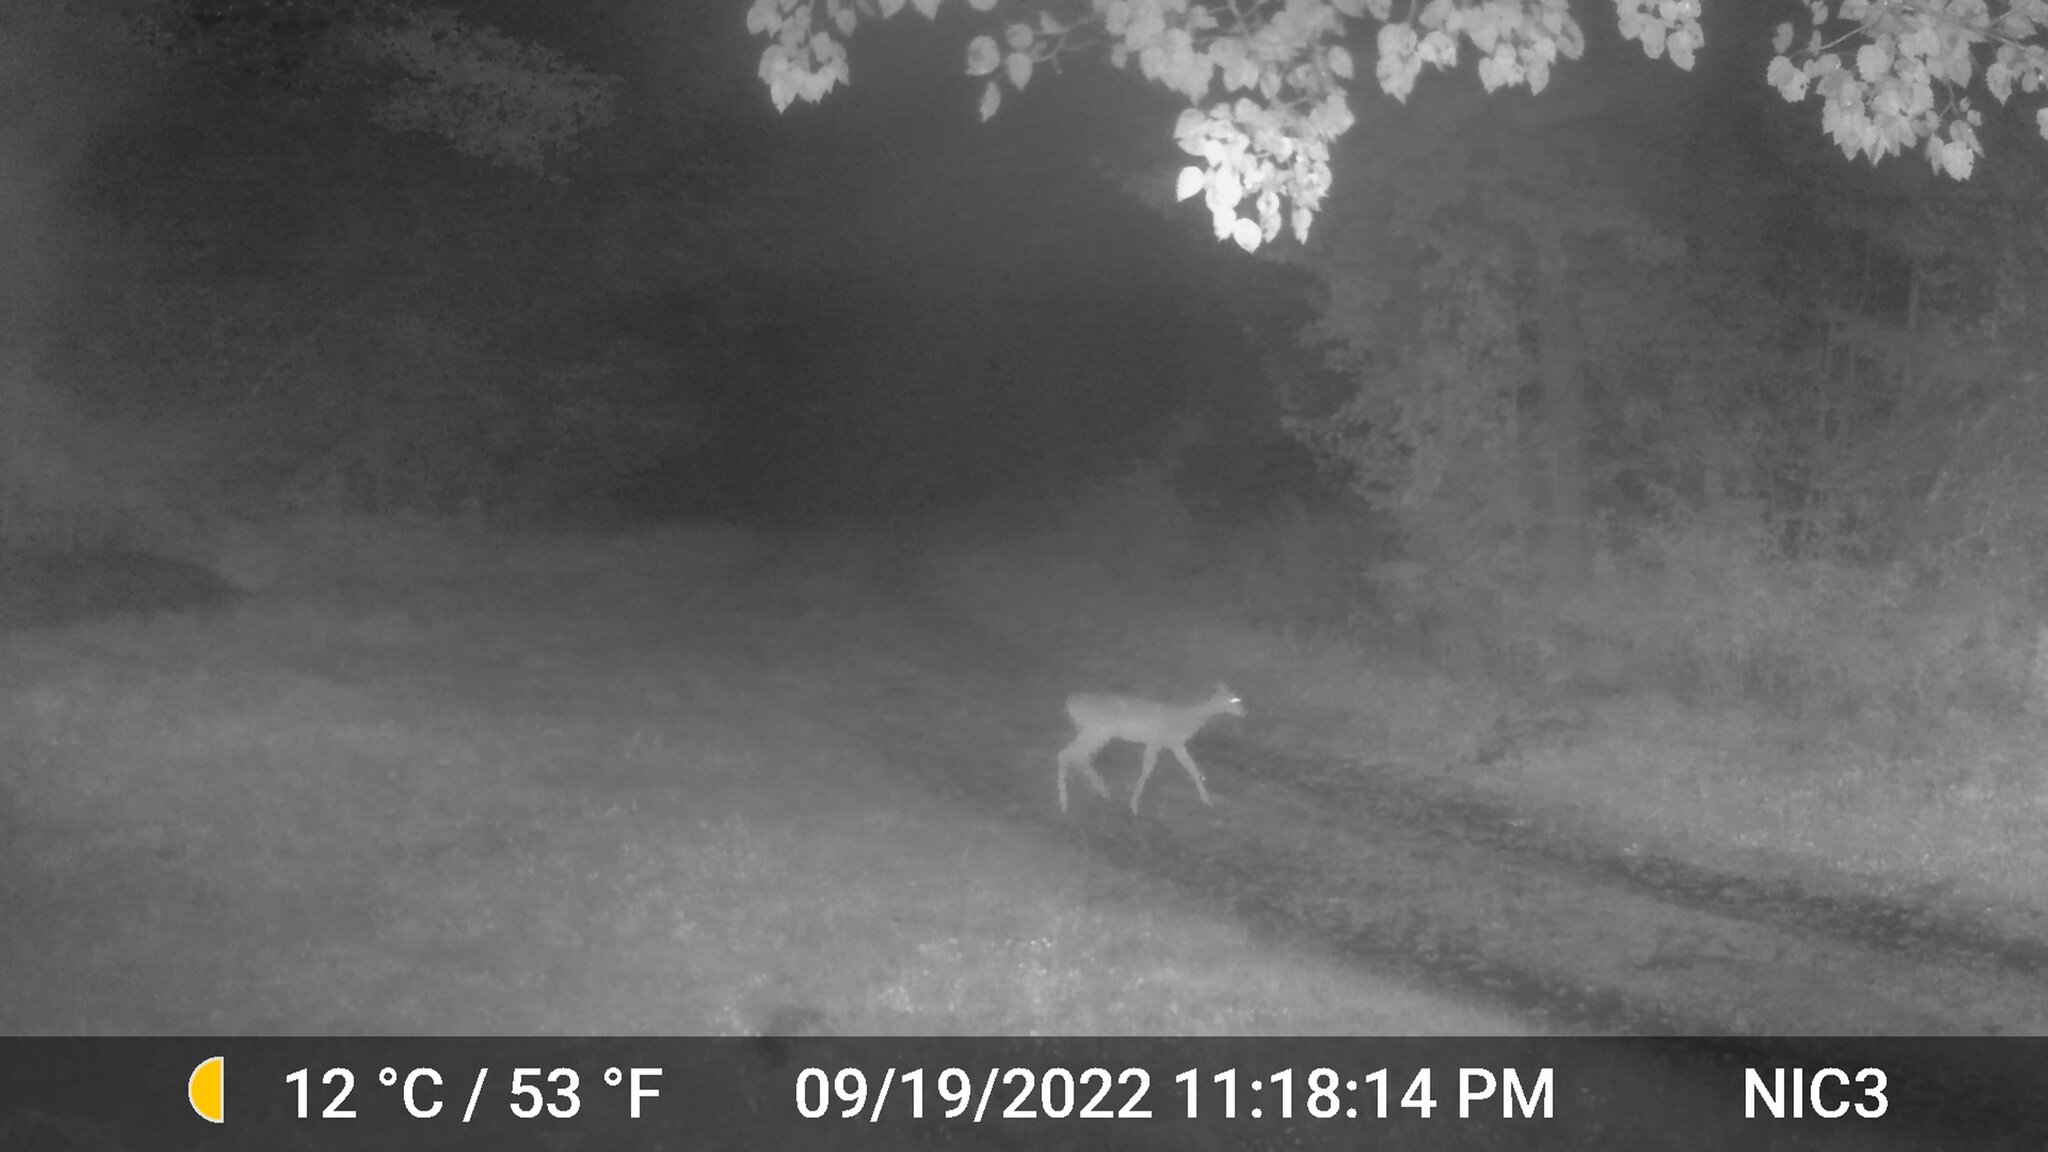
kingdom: Animalia
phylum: Chordata
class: Mammalia
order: Artiodactyla
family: Cervidae
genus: Odocoileus
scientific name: Odocoileus virginianus
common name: White-tailed deer
